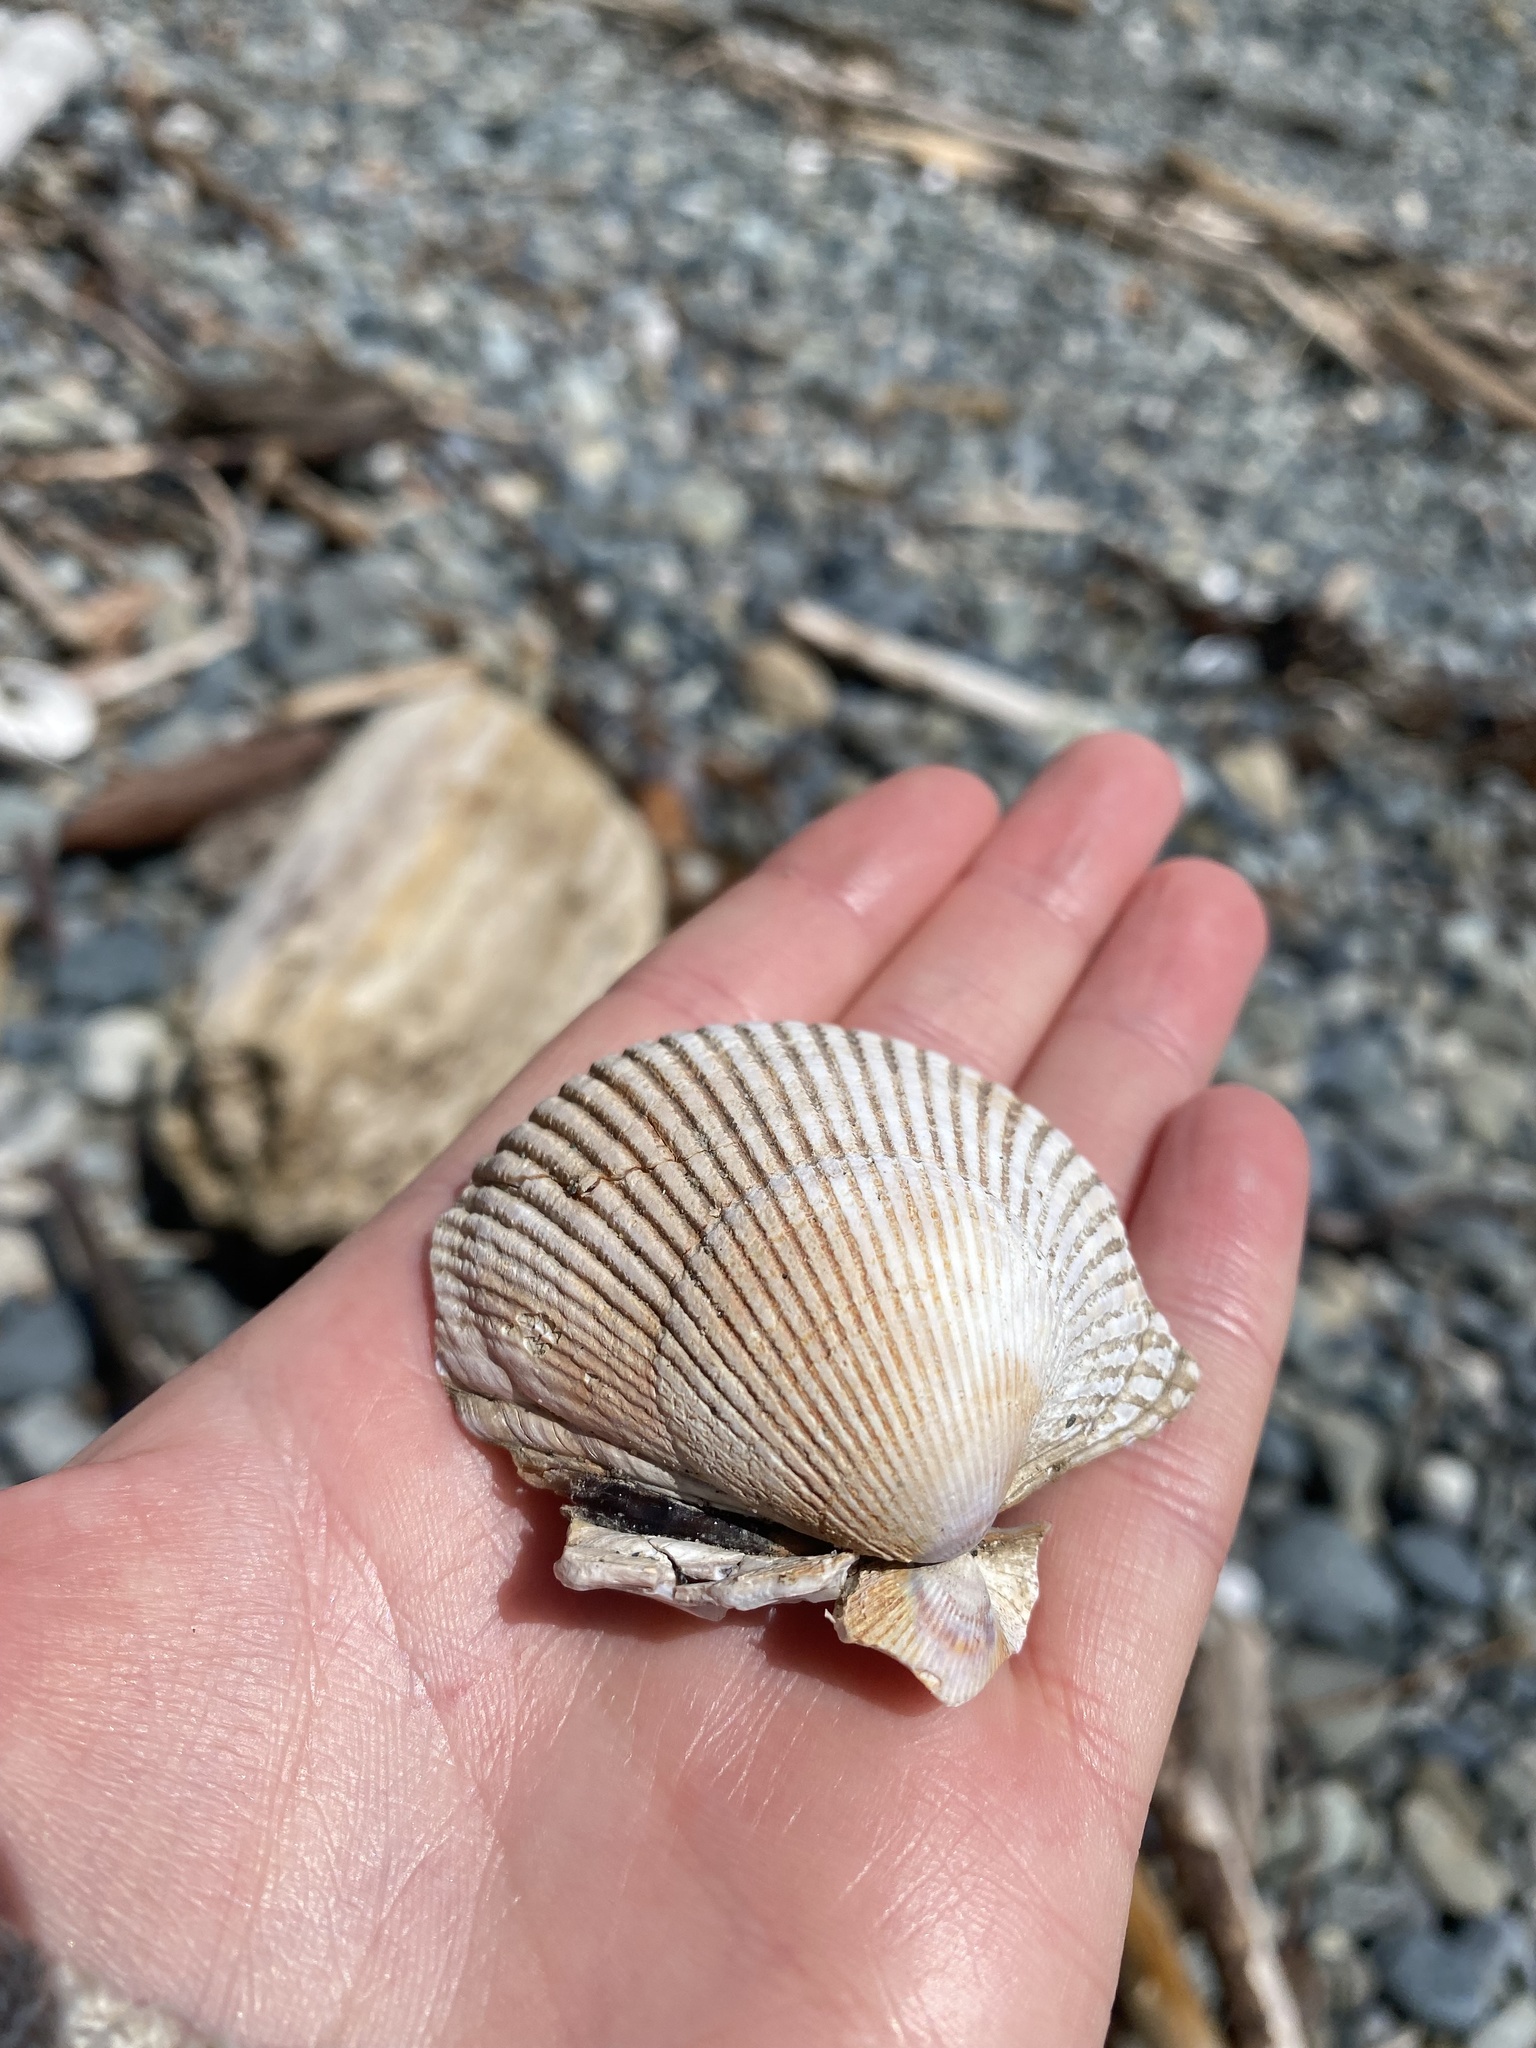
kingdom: Animalia
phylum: Mollusca
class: Bivalvia
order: Cardiida
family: Cardiidae
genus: Clinocardium
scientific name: Clinocardium nuttallii
